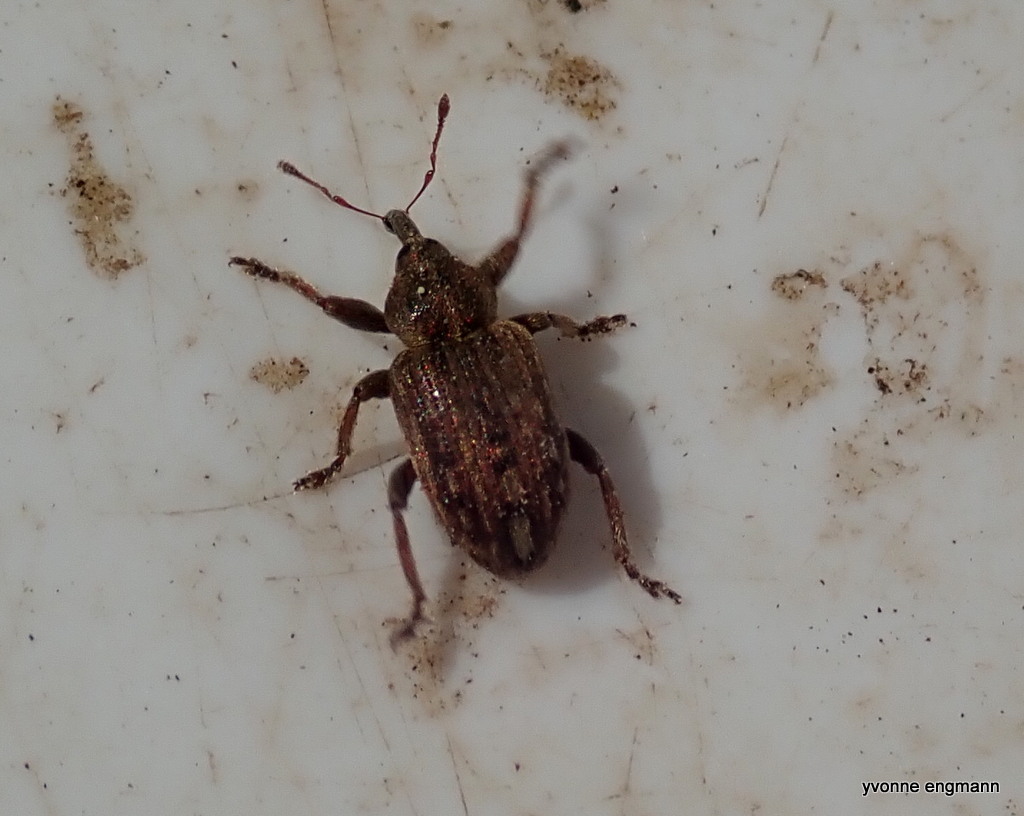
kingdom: Animalia
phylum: Arthropoda
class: Insecta
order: Coleoptera
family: Curculionidae
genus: Hypera
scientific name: Hypera arator
